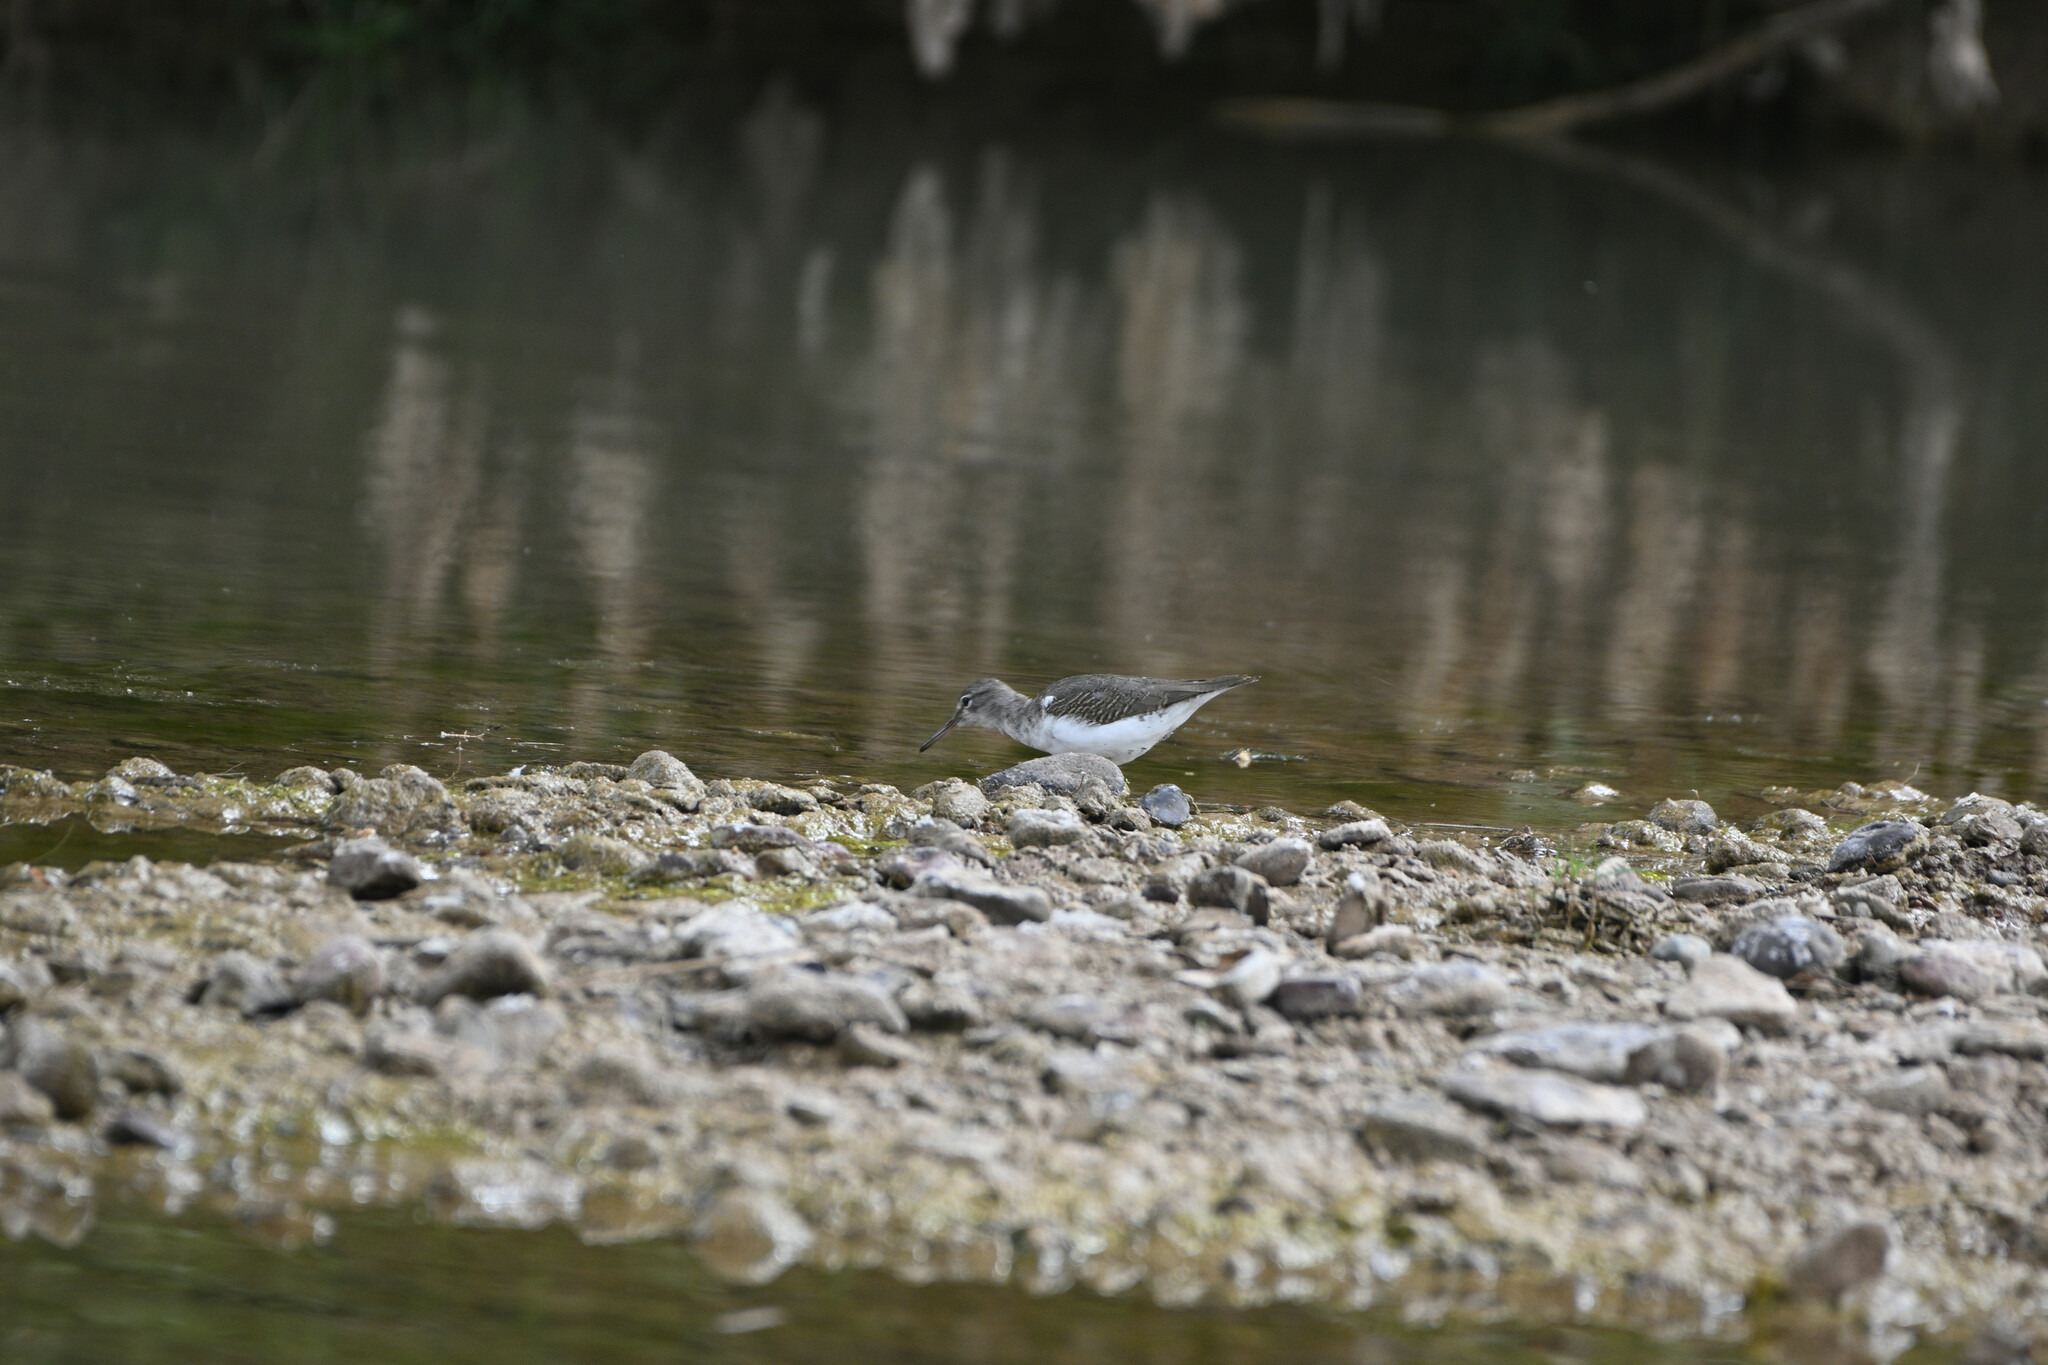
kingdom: Animalia
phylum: Chordata
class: Aves
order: Charadriiformes
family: Scolopacidae
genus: Actitis
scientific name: Actitis macularius
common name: Spotted sandpiper
